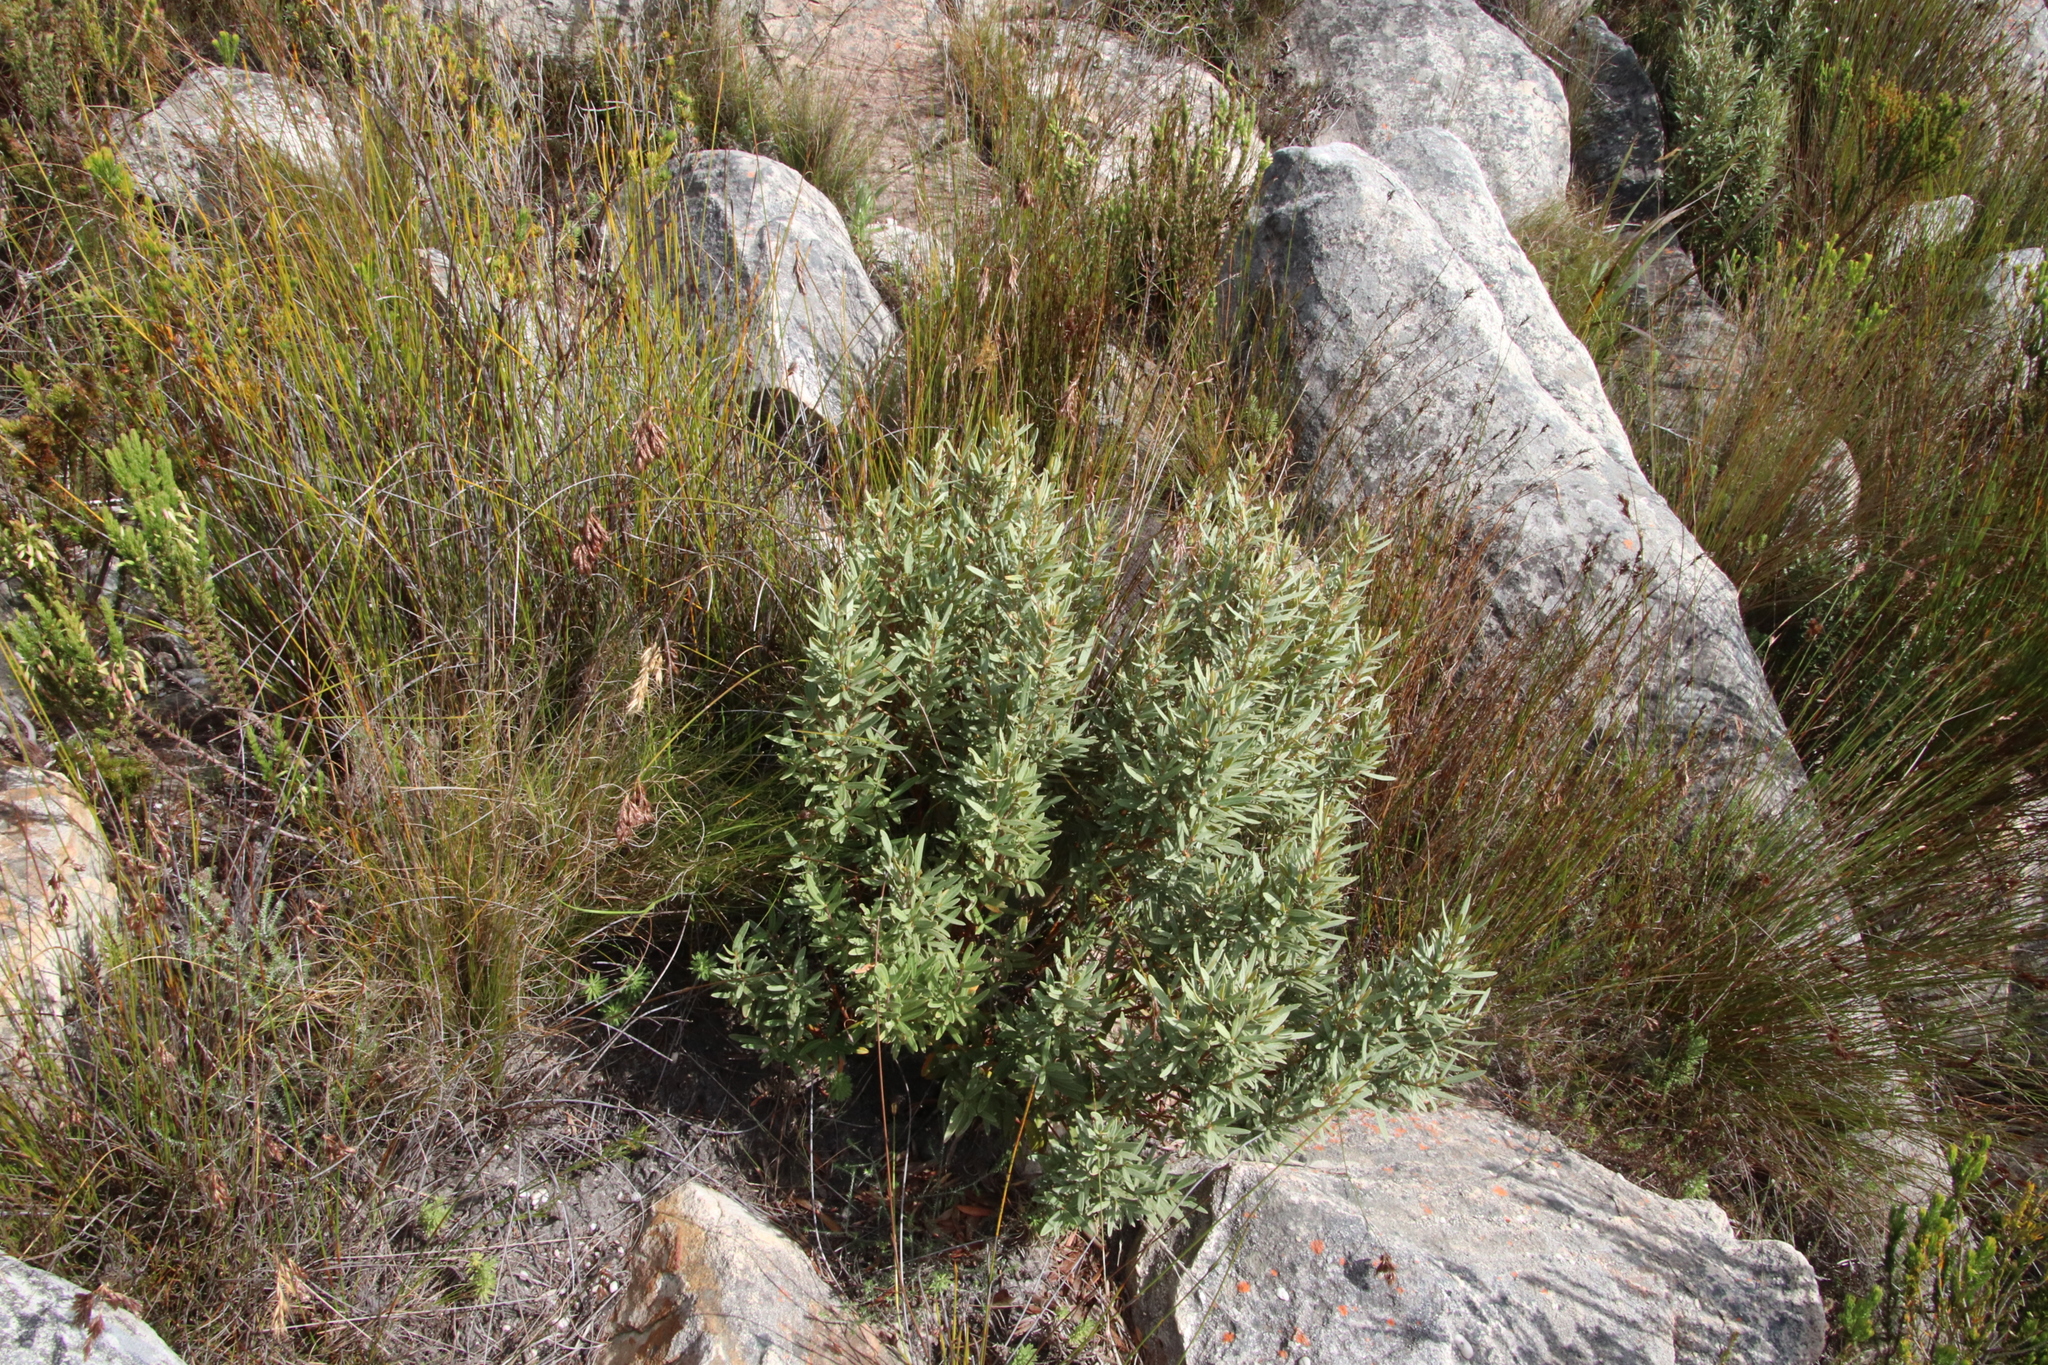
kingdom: Plantae
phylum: Tracheophyta
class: Magnoliopsida
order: Cornales
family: Grubbiaceae
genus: Grubbia
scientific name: Grubbia tomentosa
